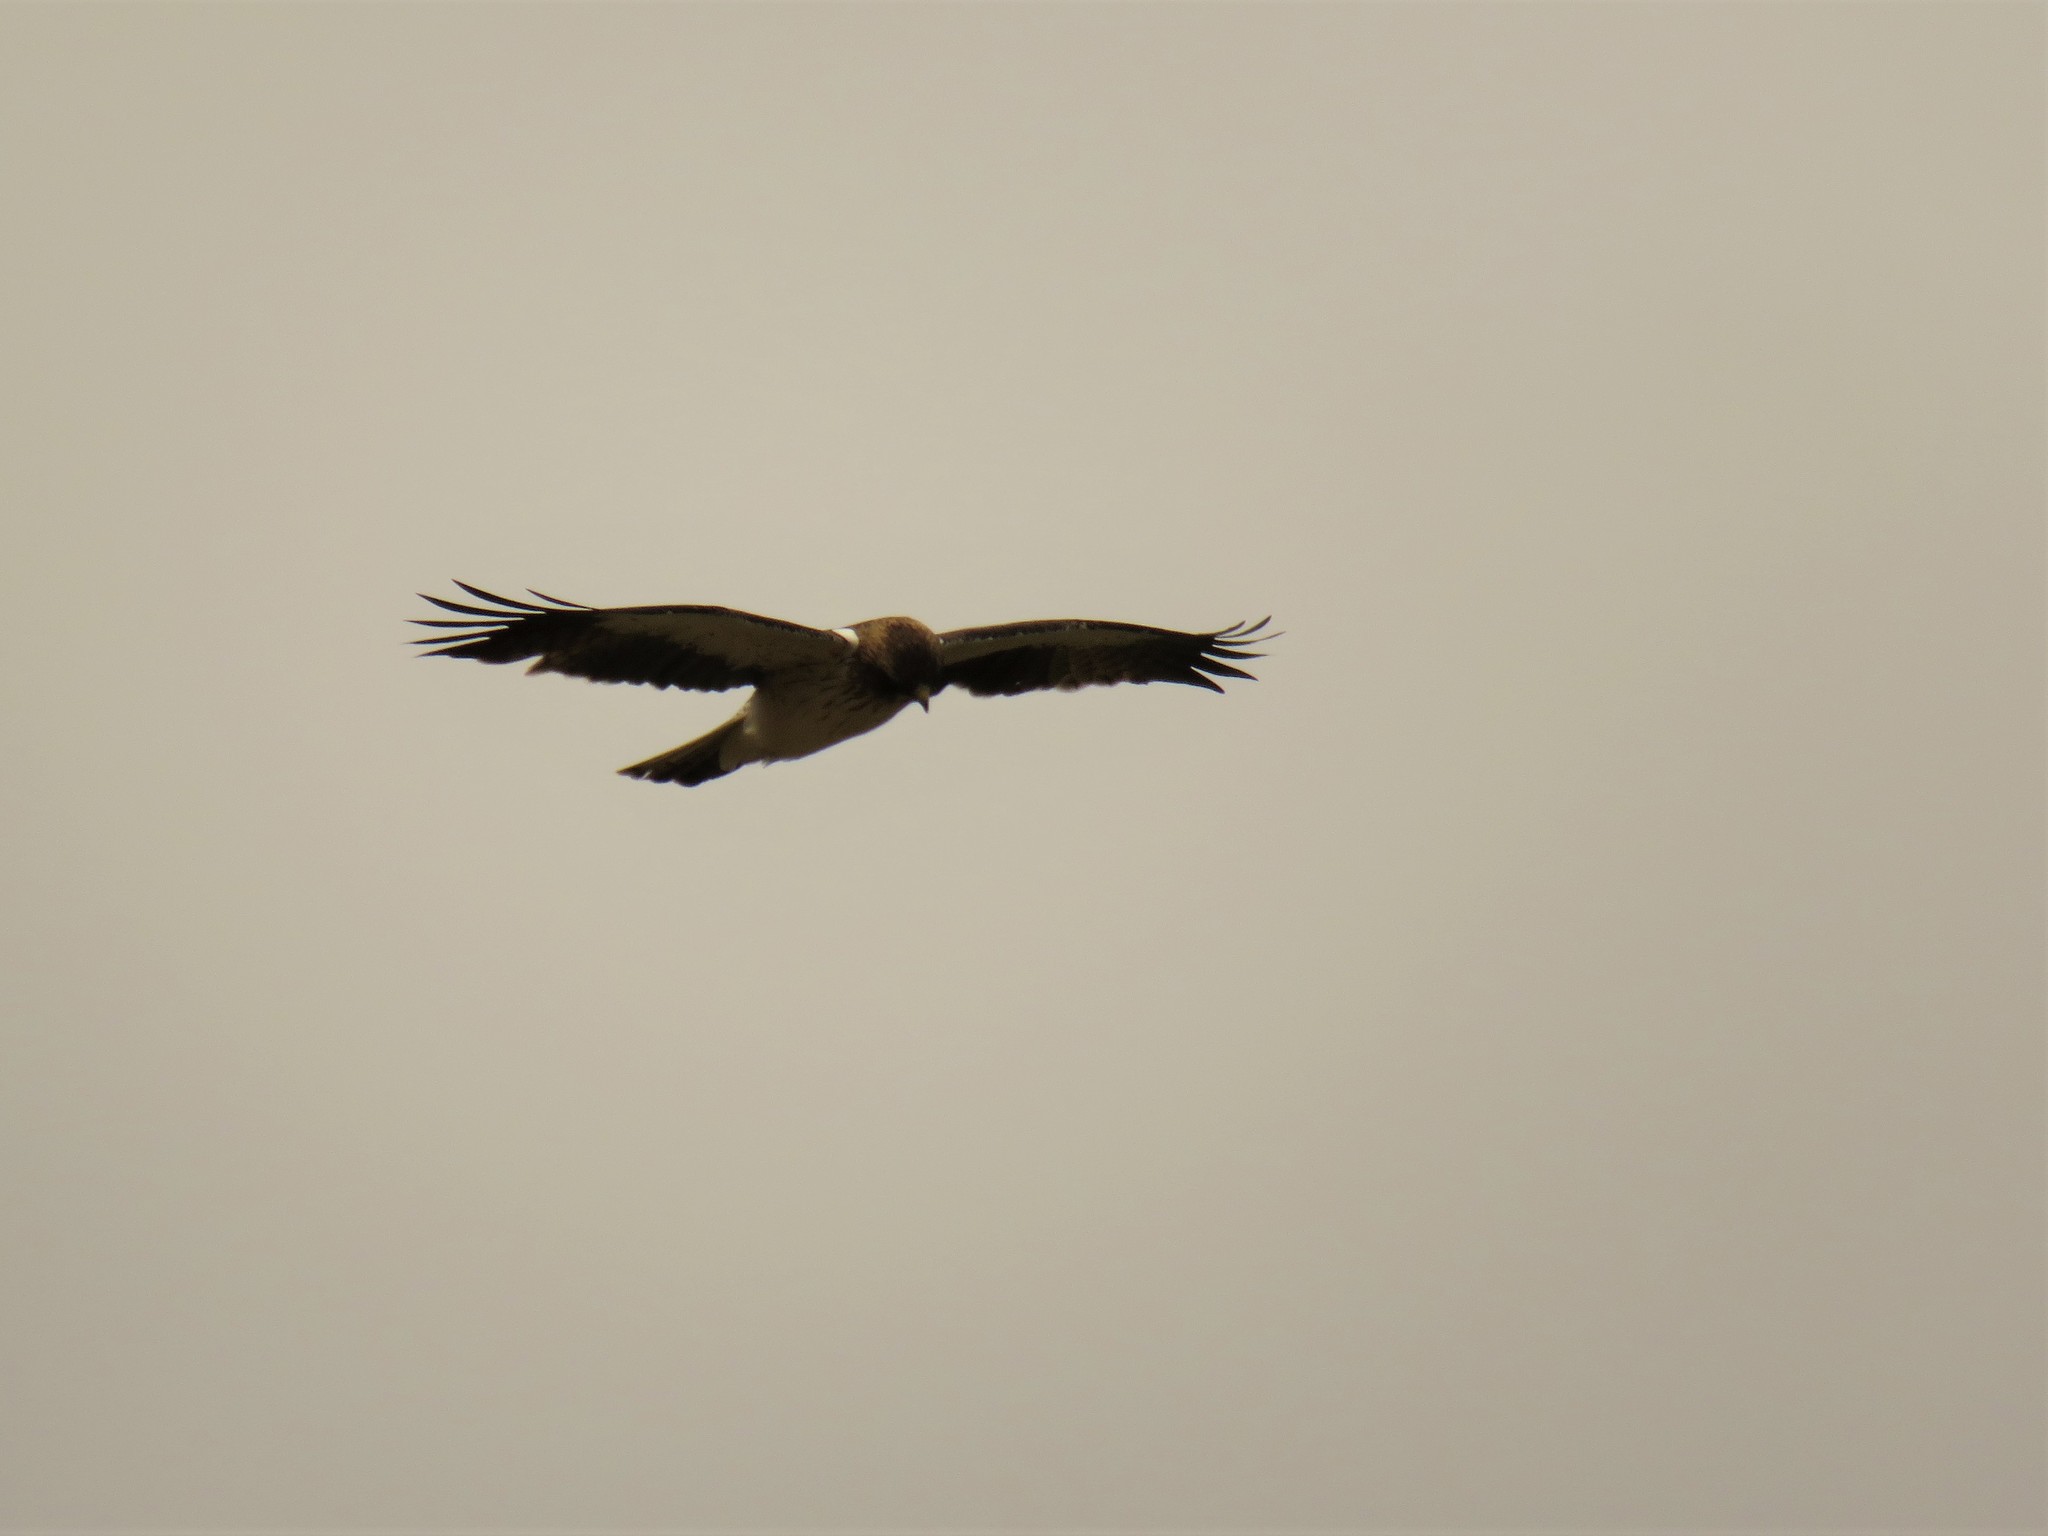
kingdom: Animalia
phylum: Chordata
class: Aves
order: Accipitriformes
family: Accipitridae
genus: Hieraaetus
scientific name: Hieraaetus pennatus
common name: Booted eagle
